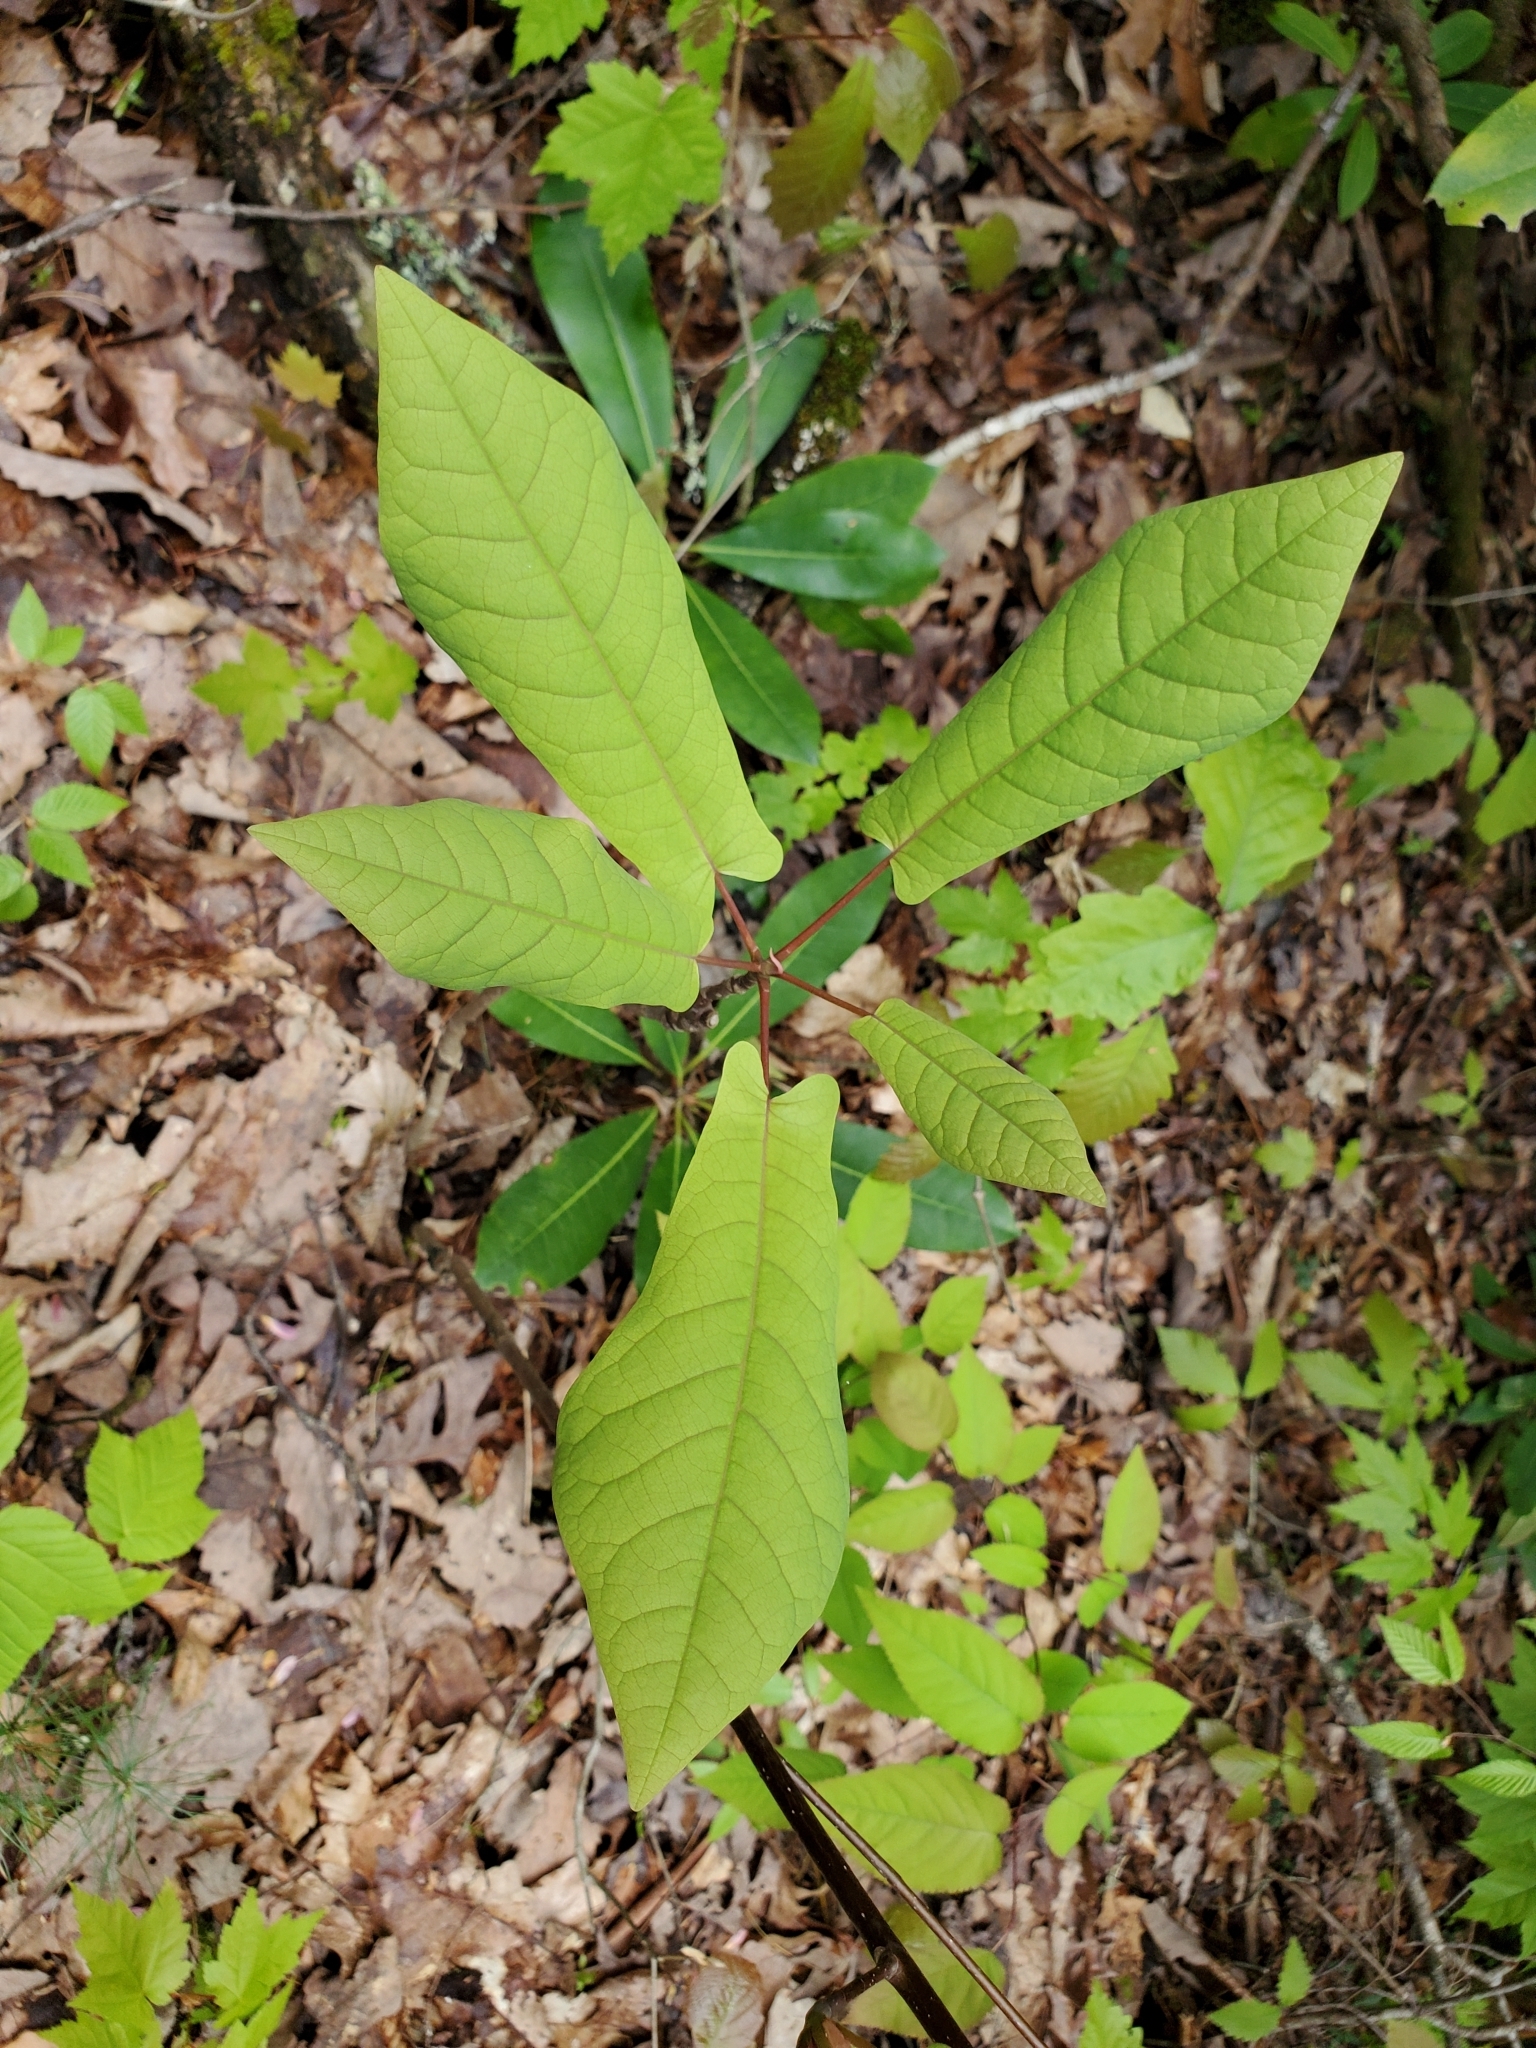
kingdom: Plantae
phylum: Tracheophyta
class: Magnoliopsida
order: Magnoliales
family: Magnoliaceae
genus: Magnolia
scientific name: Magnolia fraseri
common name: Fraser's magnolia
